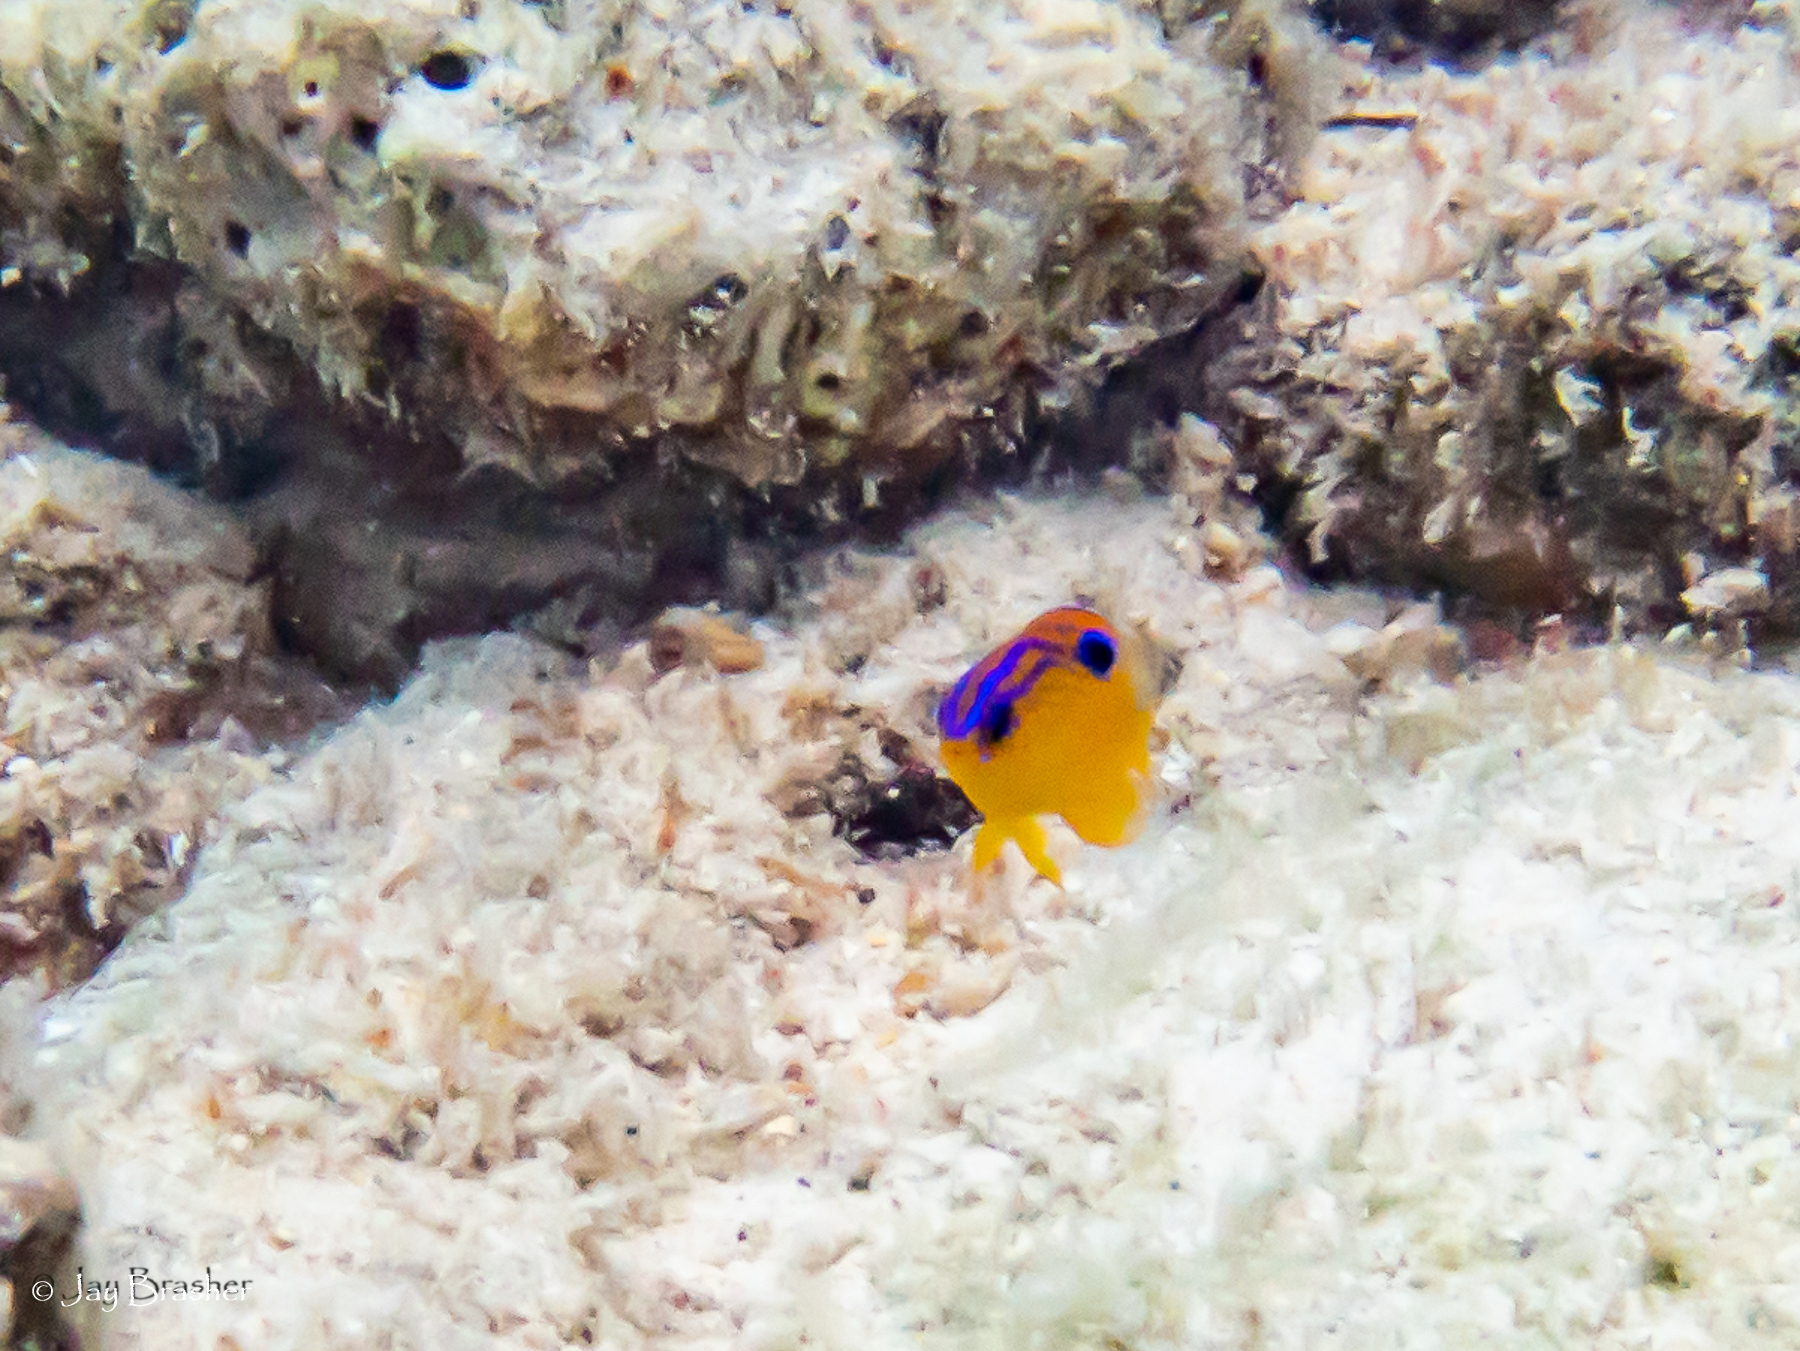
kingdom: Animalia
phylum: Chordata
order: Perciformes
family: Pomacentridae
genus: Stegastes
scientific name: Stegastes diencaeus
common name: Longfin damselfish
